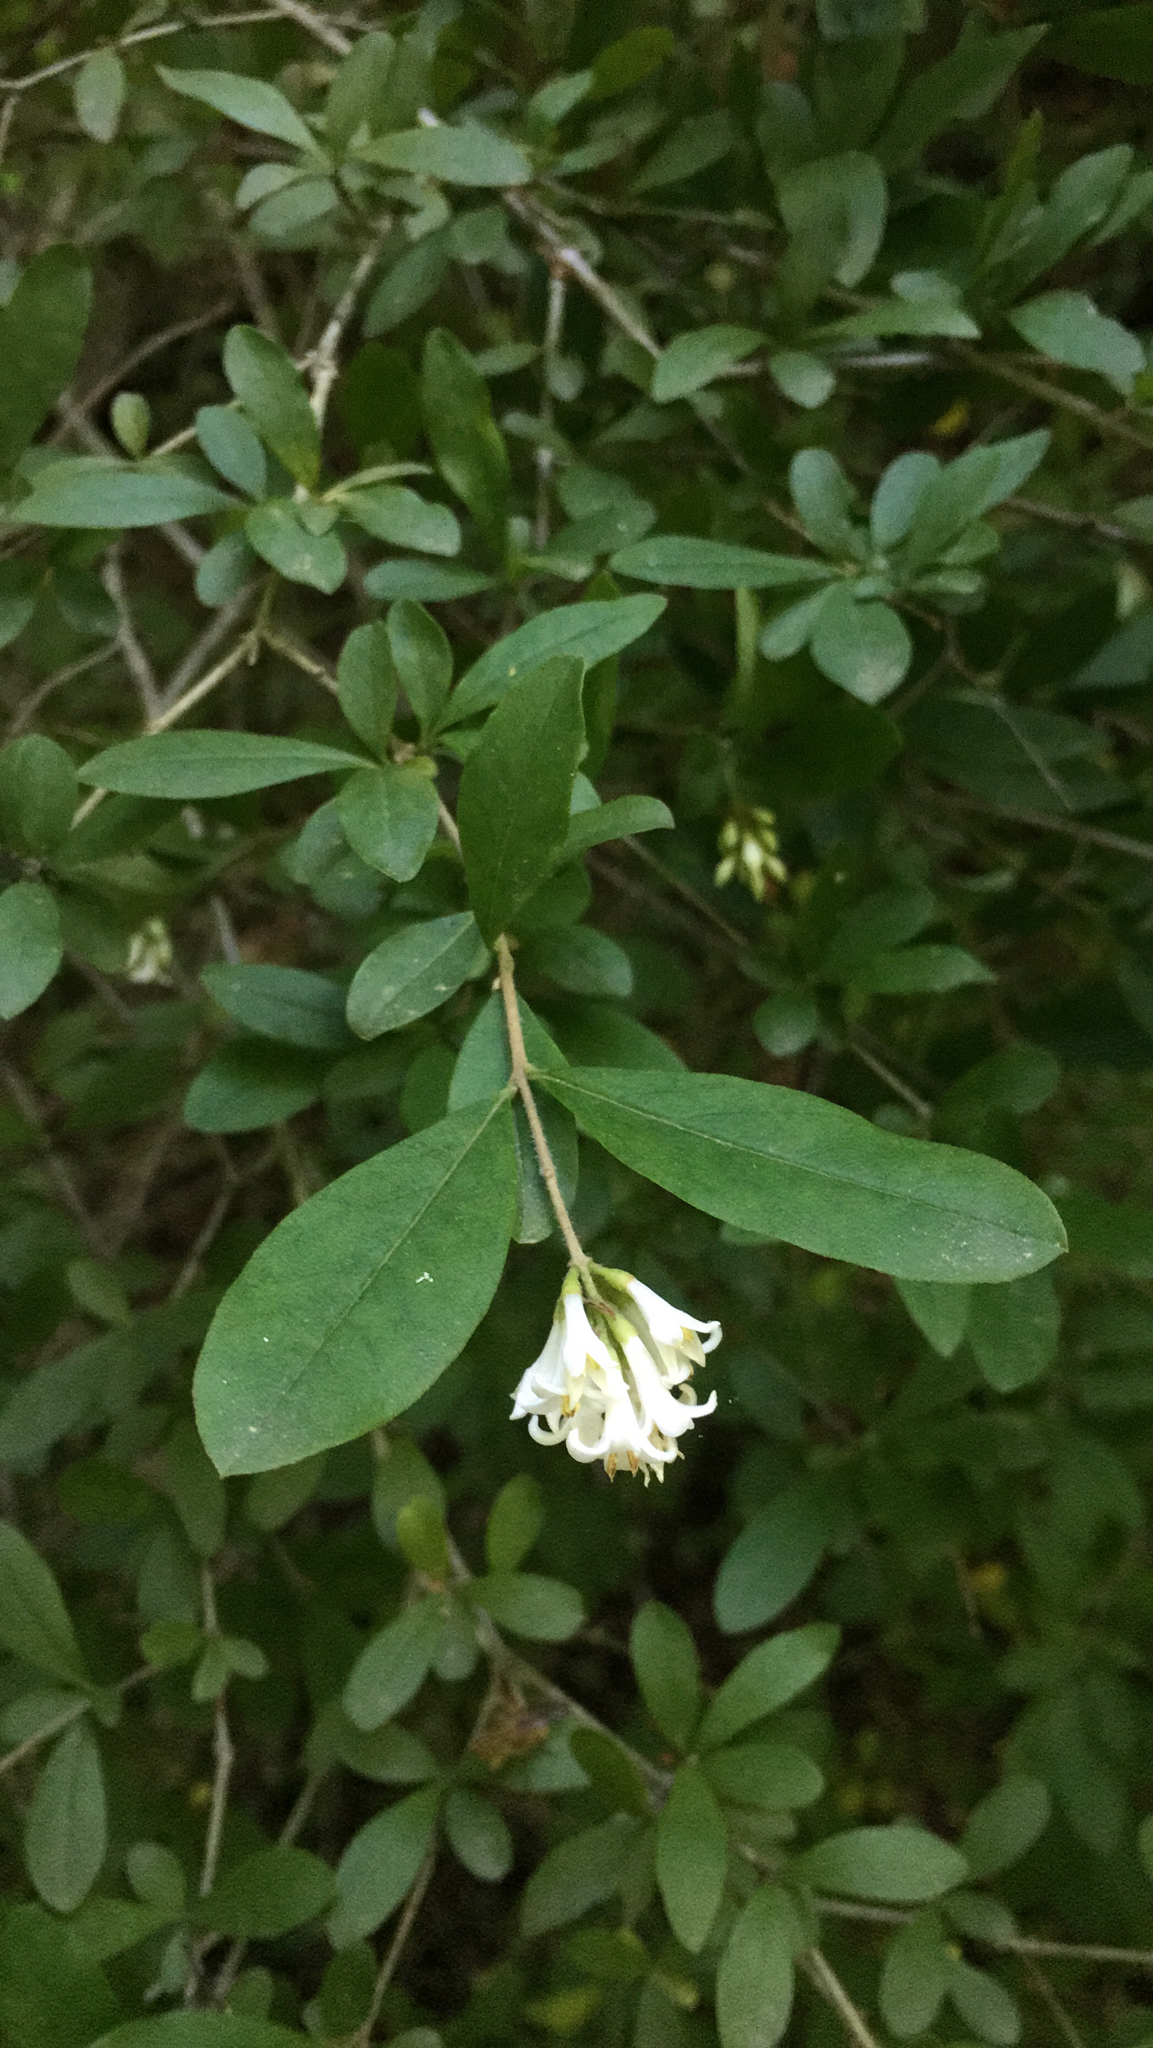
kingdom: Plantae
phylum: Tracheophyta
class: Magnoliopsida
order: Lamiales
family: Oleaceae
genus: Ligustrum
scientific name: Ligustrum obtusifolium
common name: Border privet
